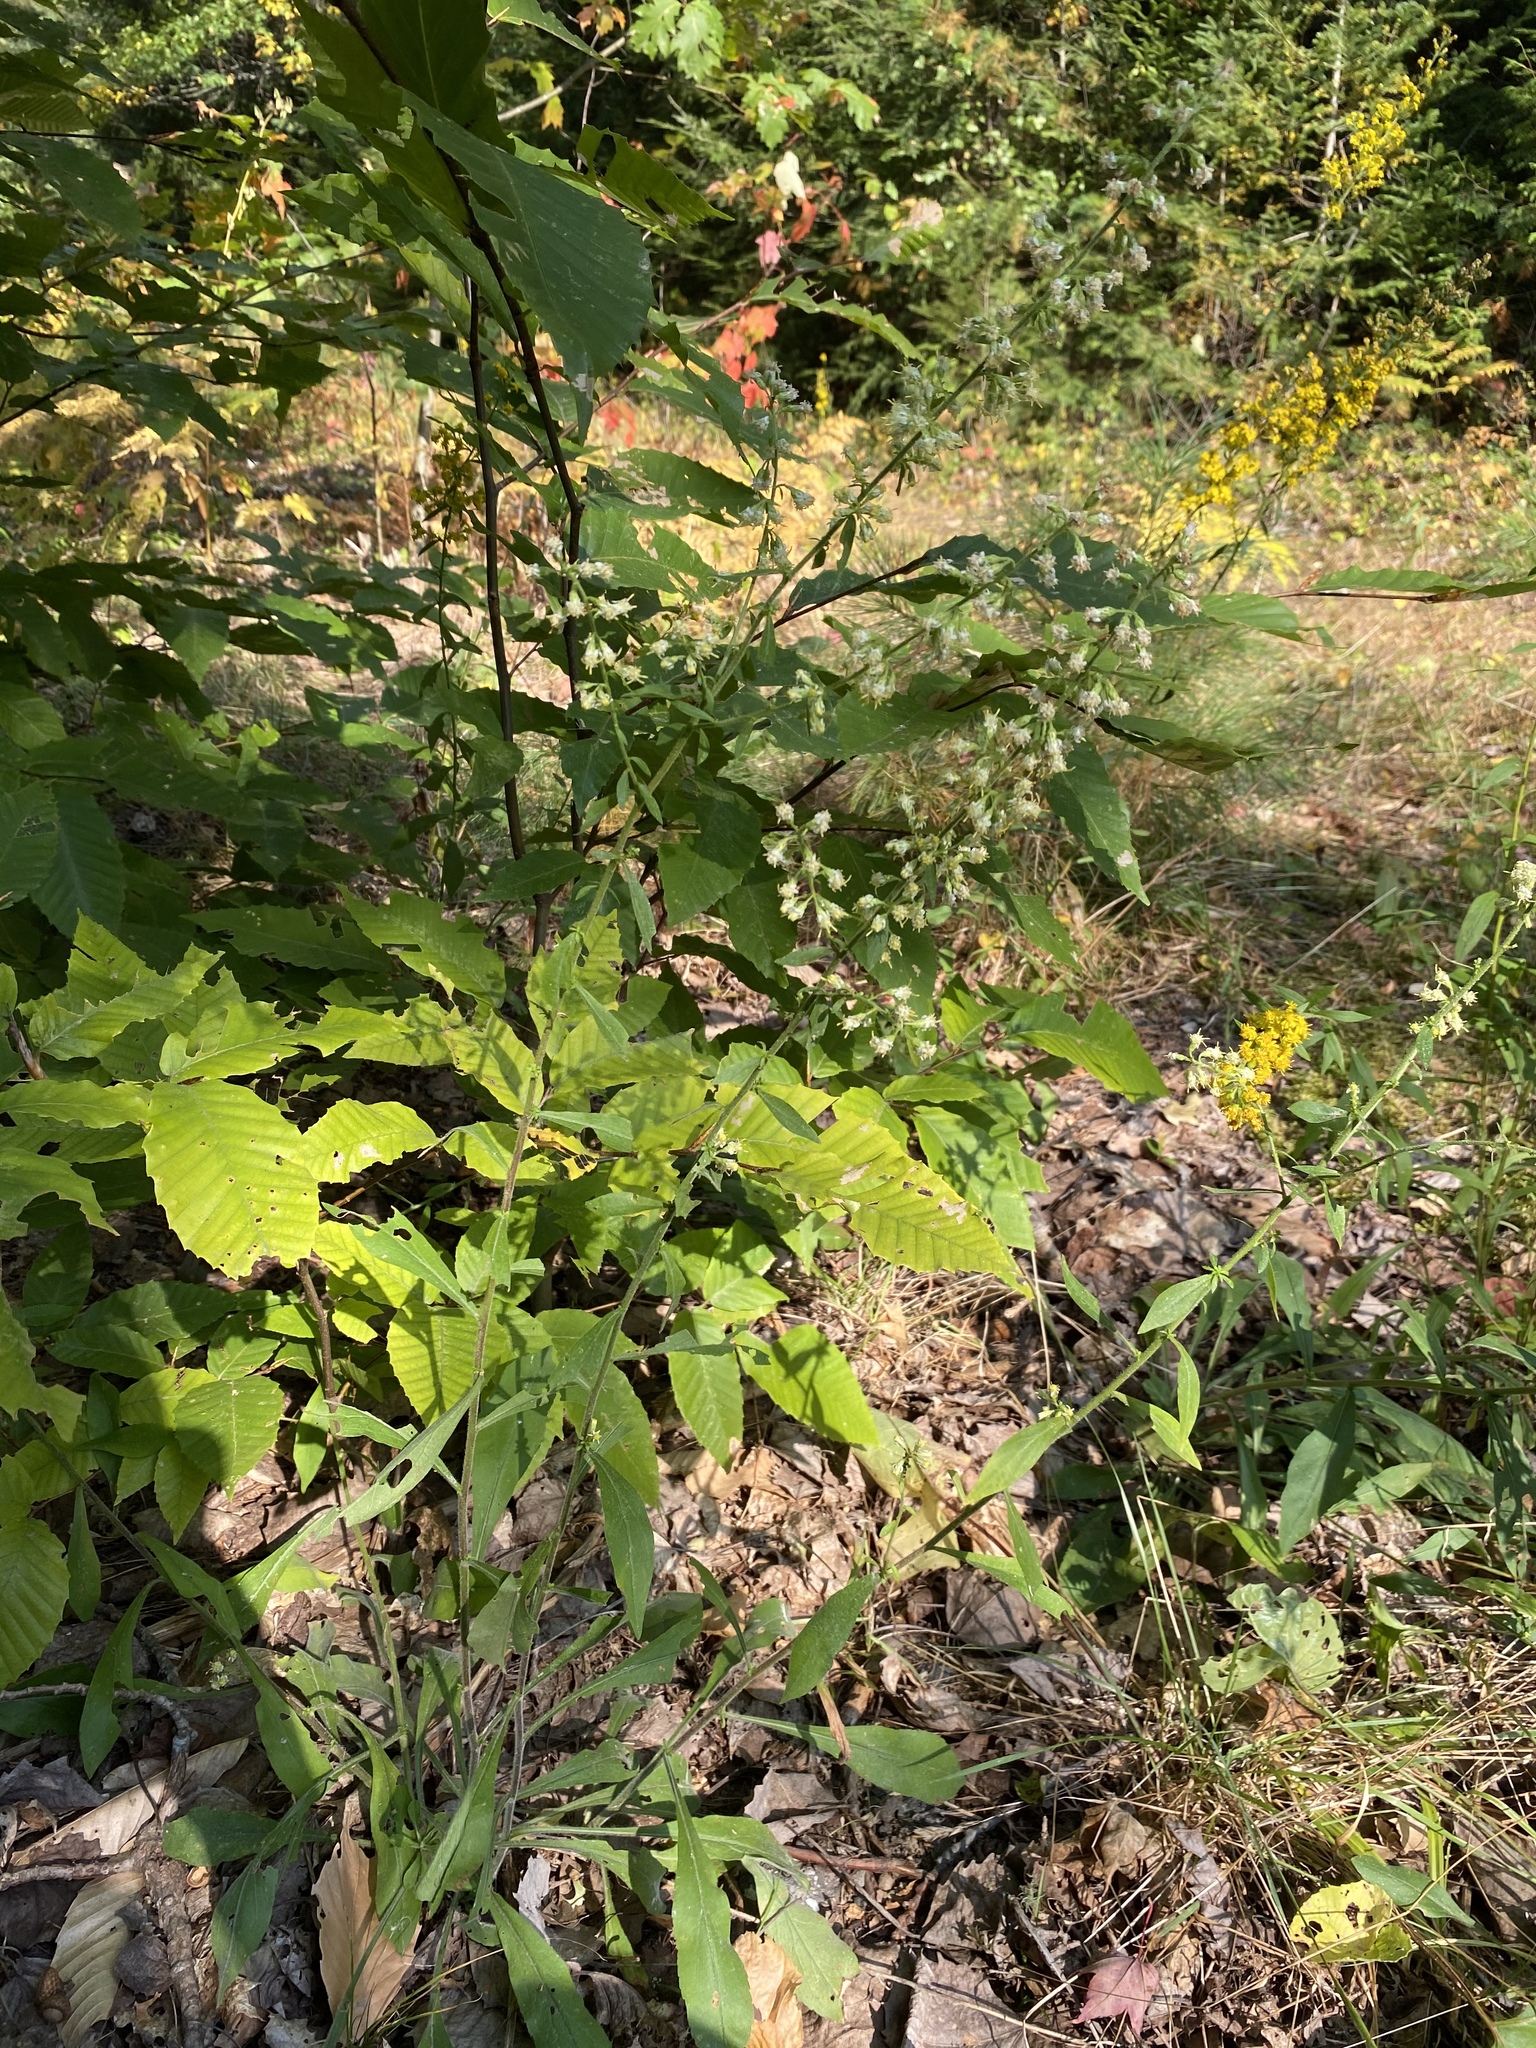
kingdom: Plantae
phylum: Tracheophyta
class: Magnoliopsida
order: Asterales
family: Asteraceae
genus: Solidago
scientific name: Solidago bicolor
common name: Silverrod
